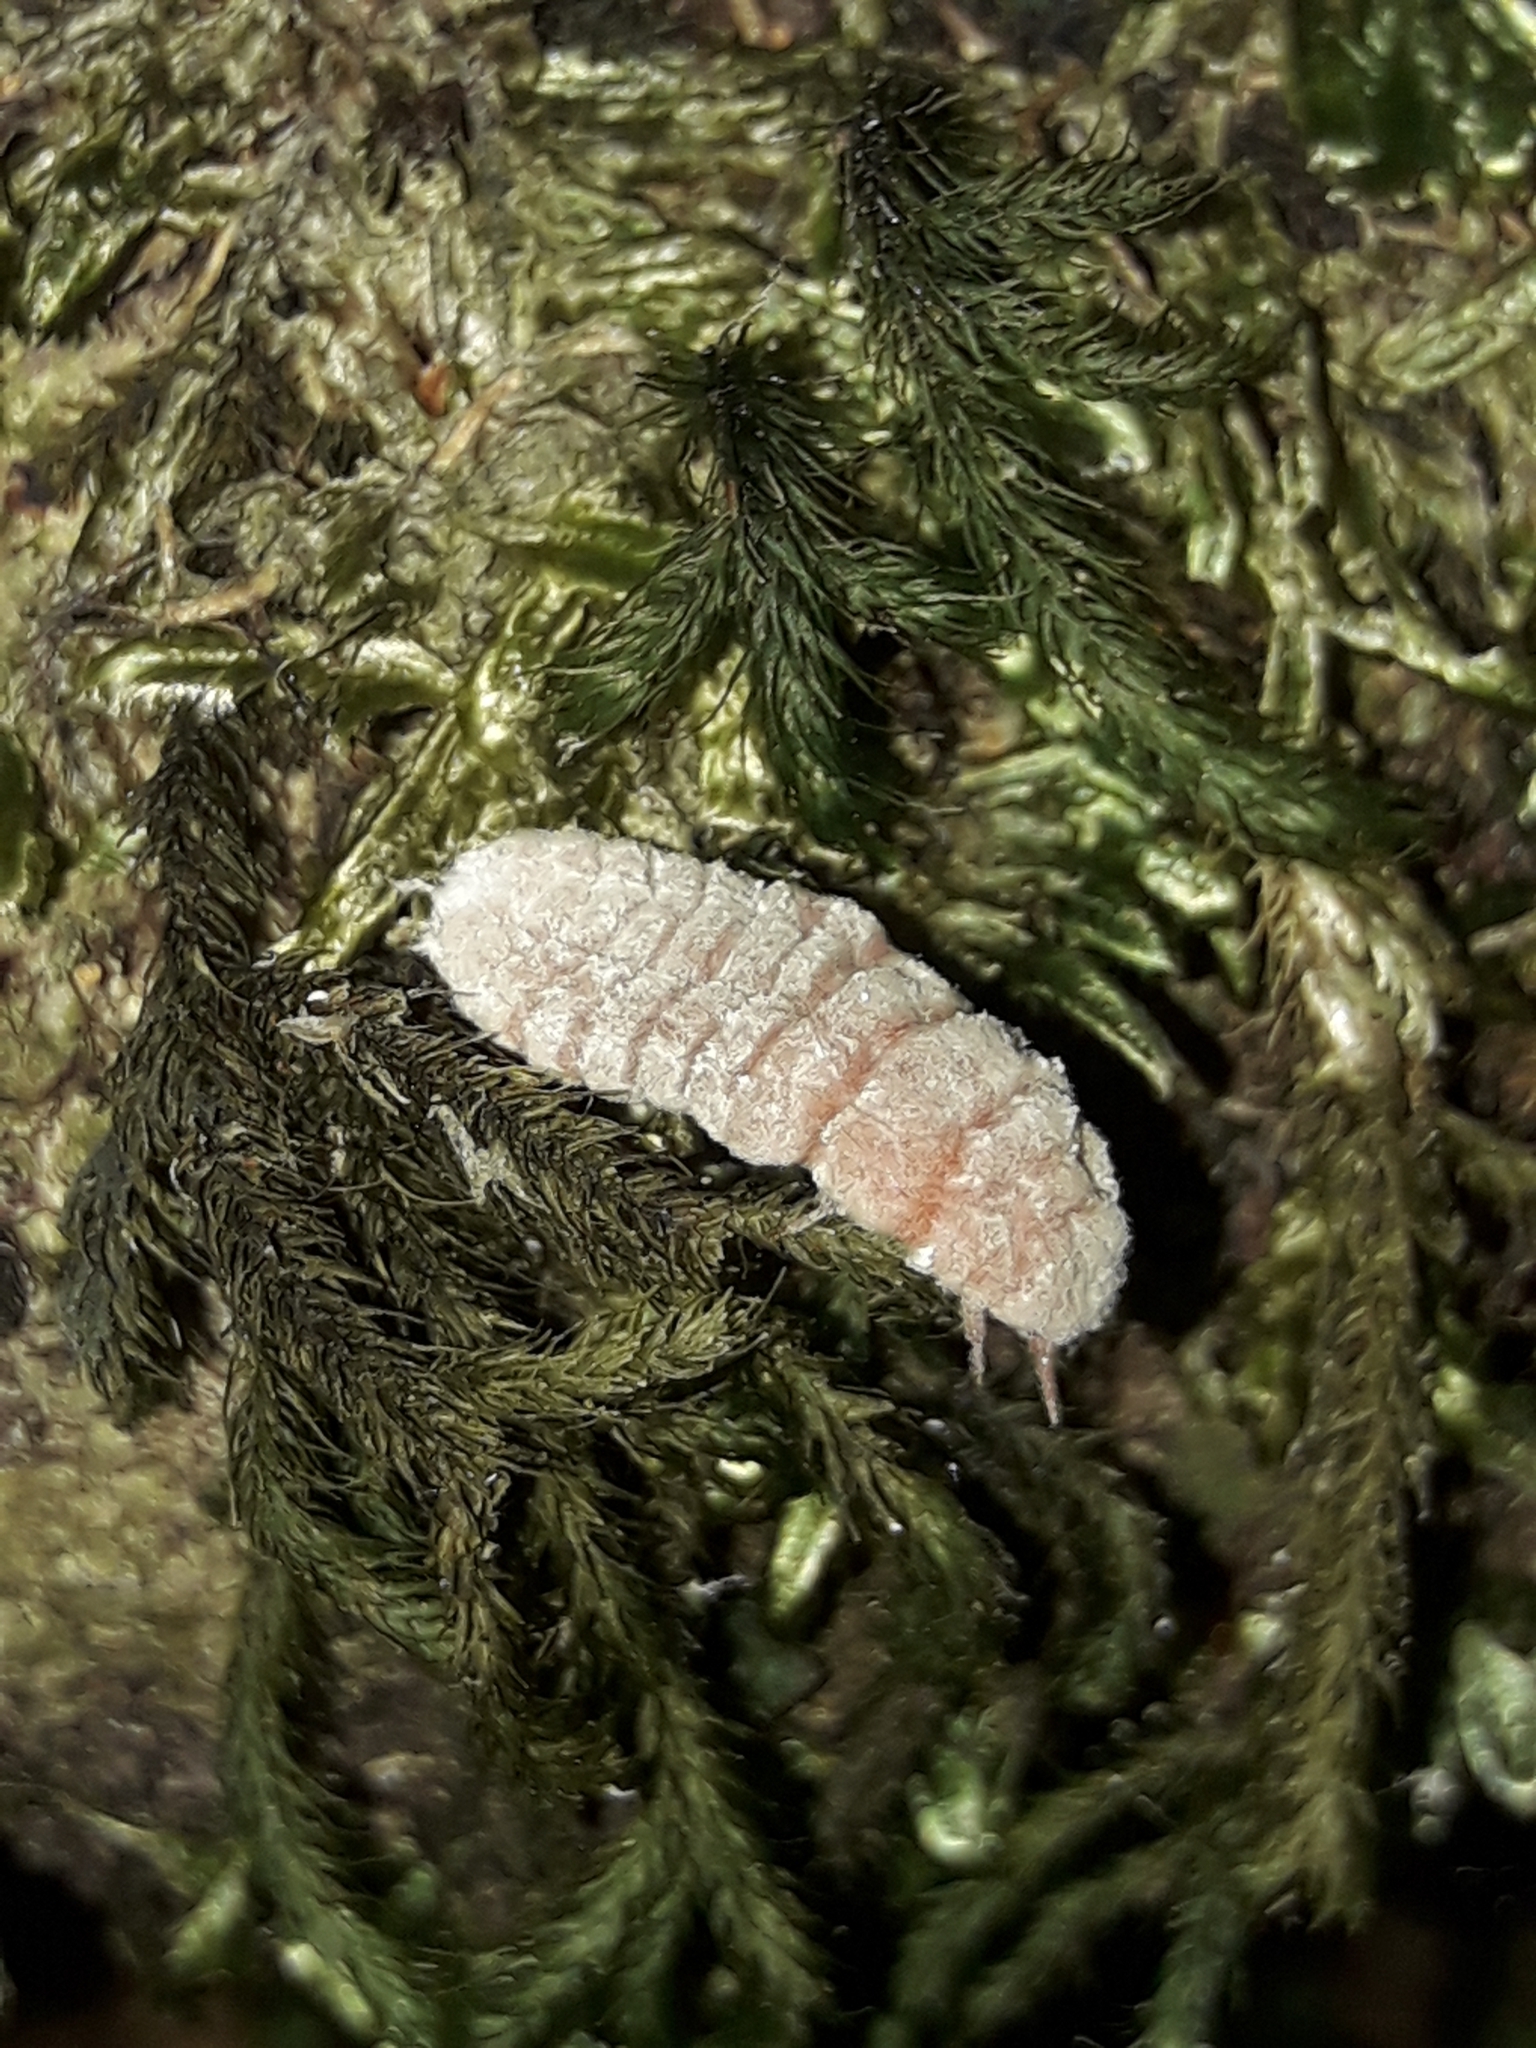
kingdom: Animalia
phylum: Arthropoda
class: Insecta
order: Hemiptera
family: Margarodidae
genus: Coelostomidia
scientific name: Coelostomidia zealandica
